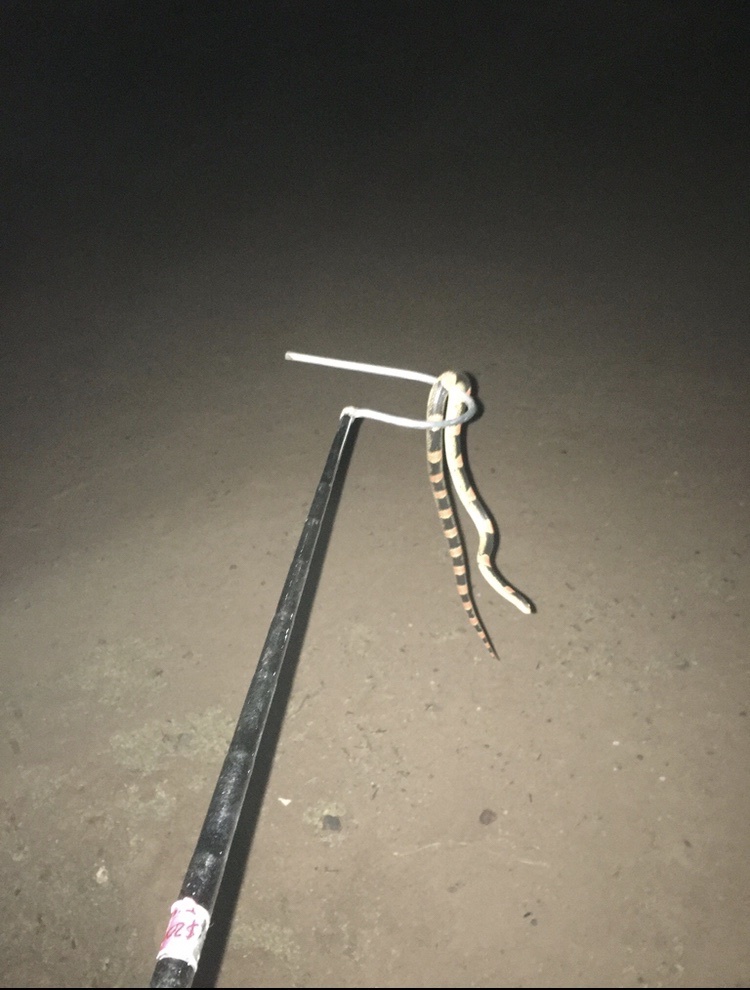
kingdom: Animalia
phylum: Chordata
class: Squamata
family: Colubridae
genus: Rhinocheilus
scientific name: Rhinocheilus lecontei
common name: Longnose snake
